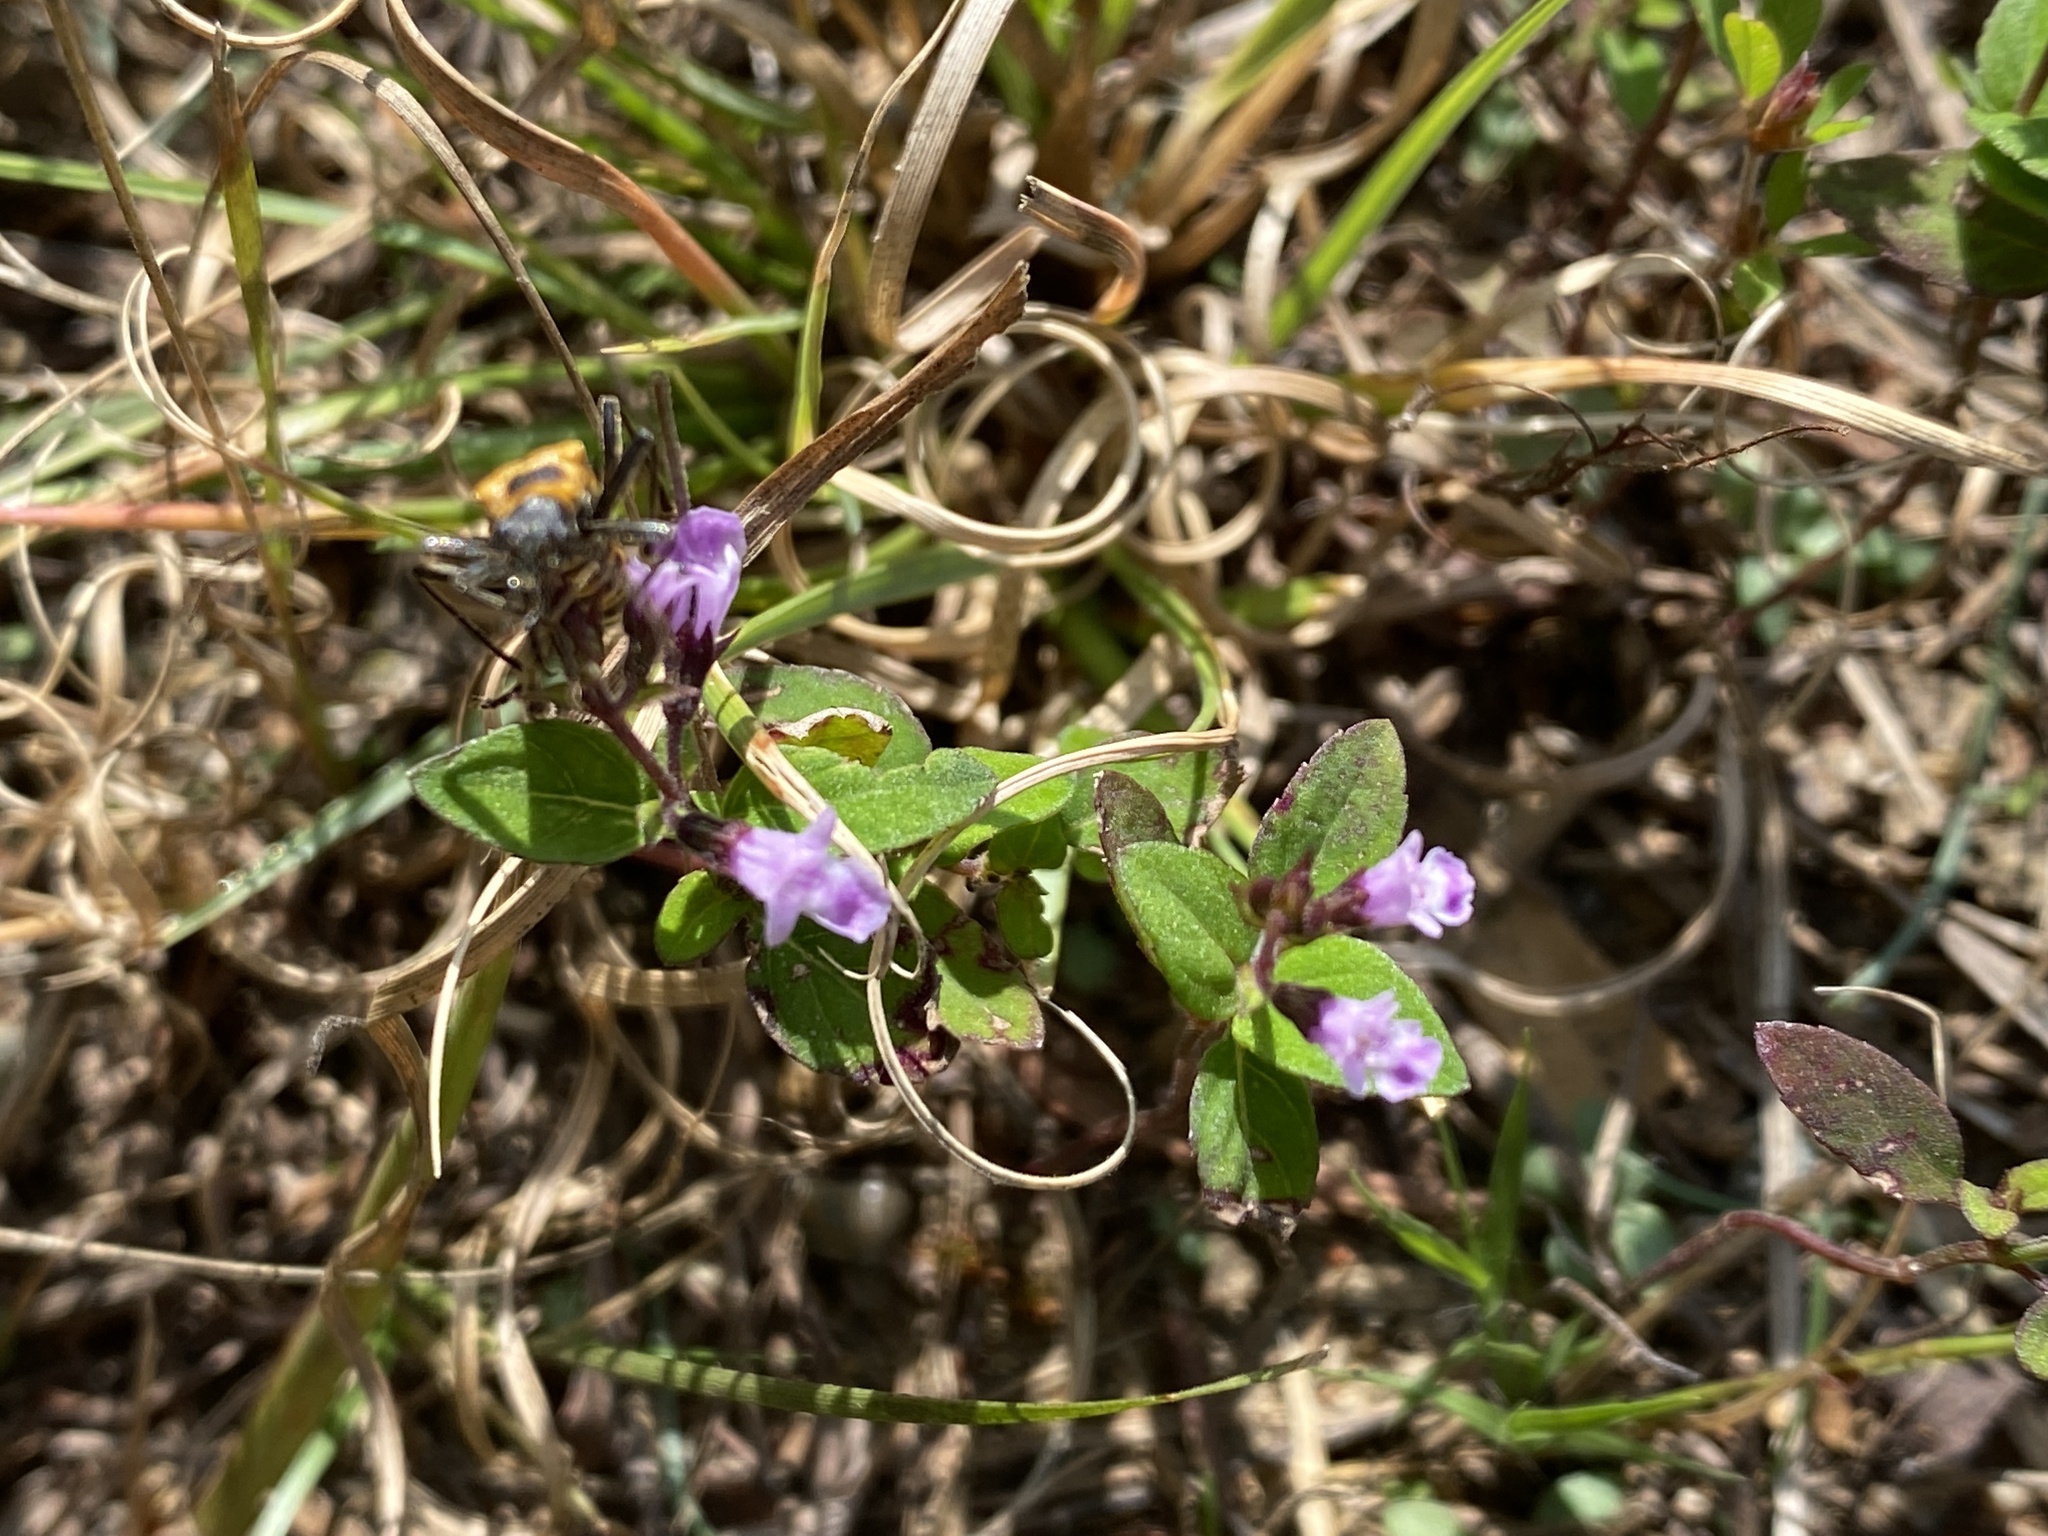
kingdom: Plantae
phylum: Tracheophyta
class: Magnoliopsida
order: Lamiales
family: Lamiaceae
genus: Mosla
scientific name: Mosla dianthera
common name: Miniature beefsteakplant
